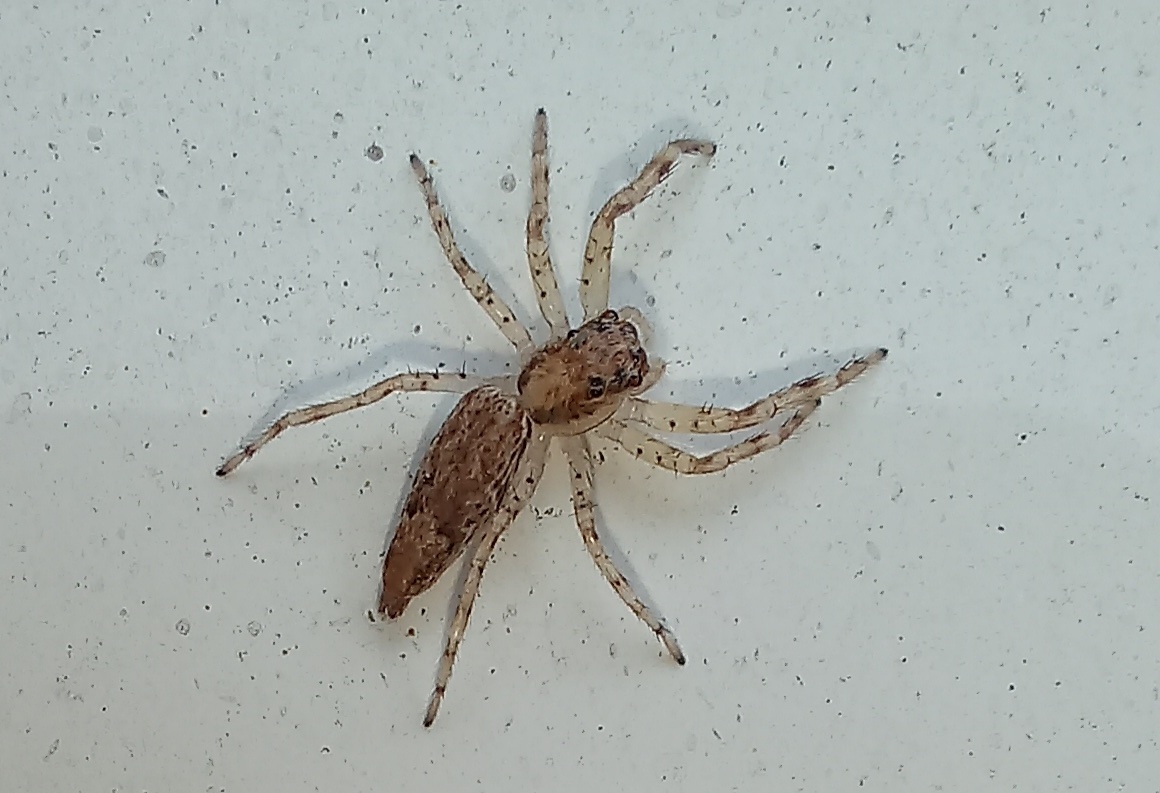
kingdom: Animalia
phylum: Arthropoda
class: Arachnida
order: Araneae
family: Salticidae
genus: Helpis
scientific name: Helpis minitabunda
